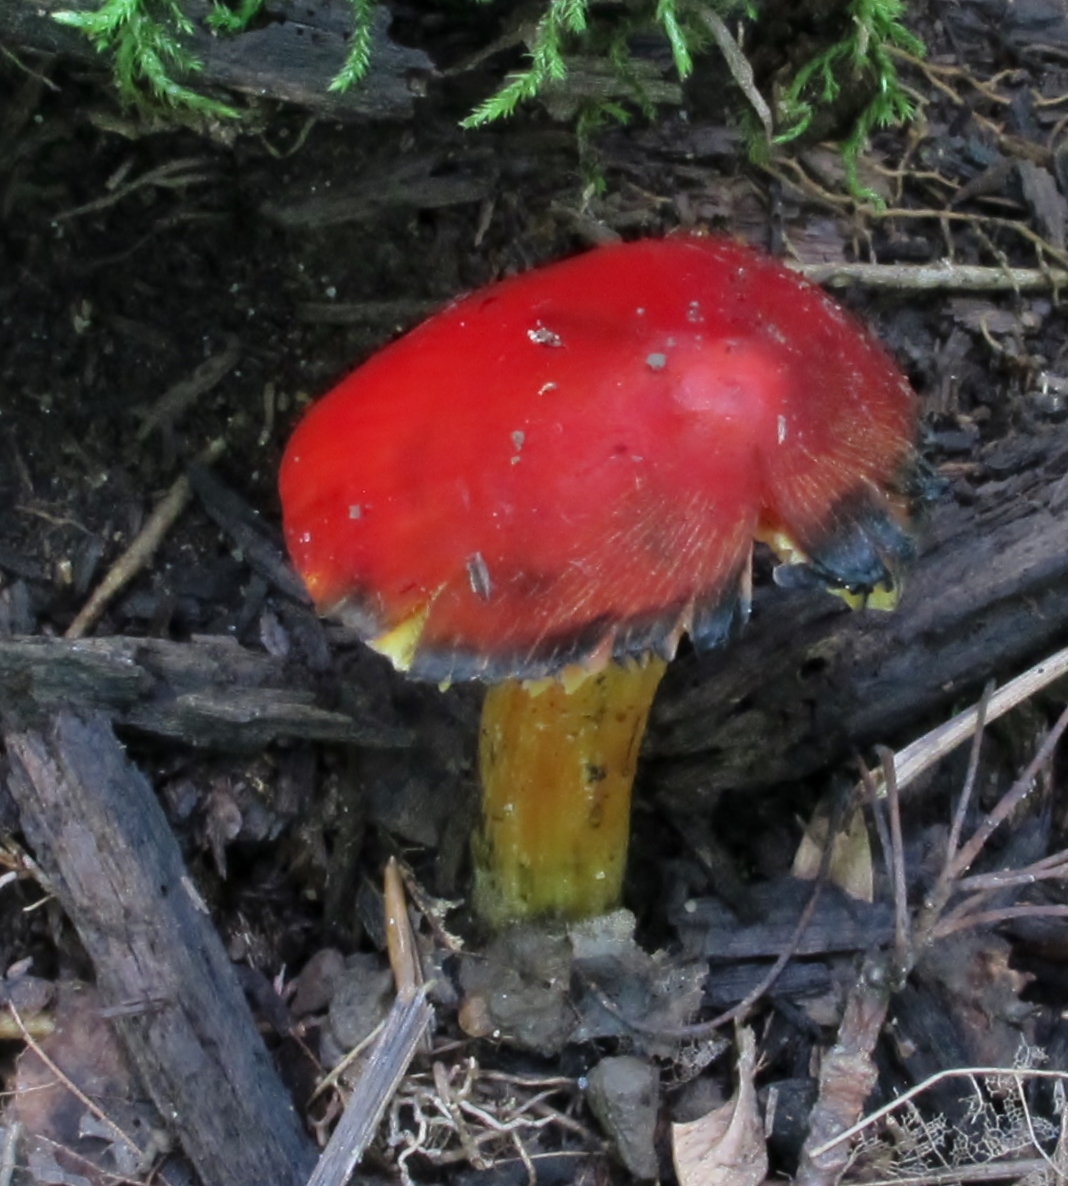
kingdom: Fungi
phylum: Basidiomycota
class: Agaricomycetes
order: Agaricales
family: Hygrophoraceae
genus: Hygrocybe
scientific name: Hygrocybe conica
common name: Blackening wax-cap
